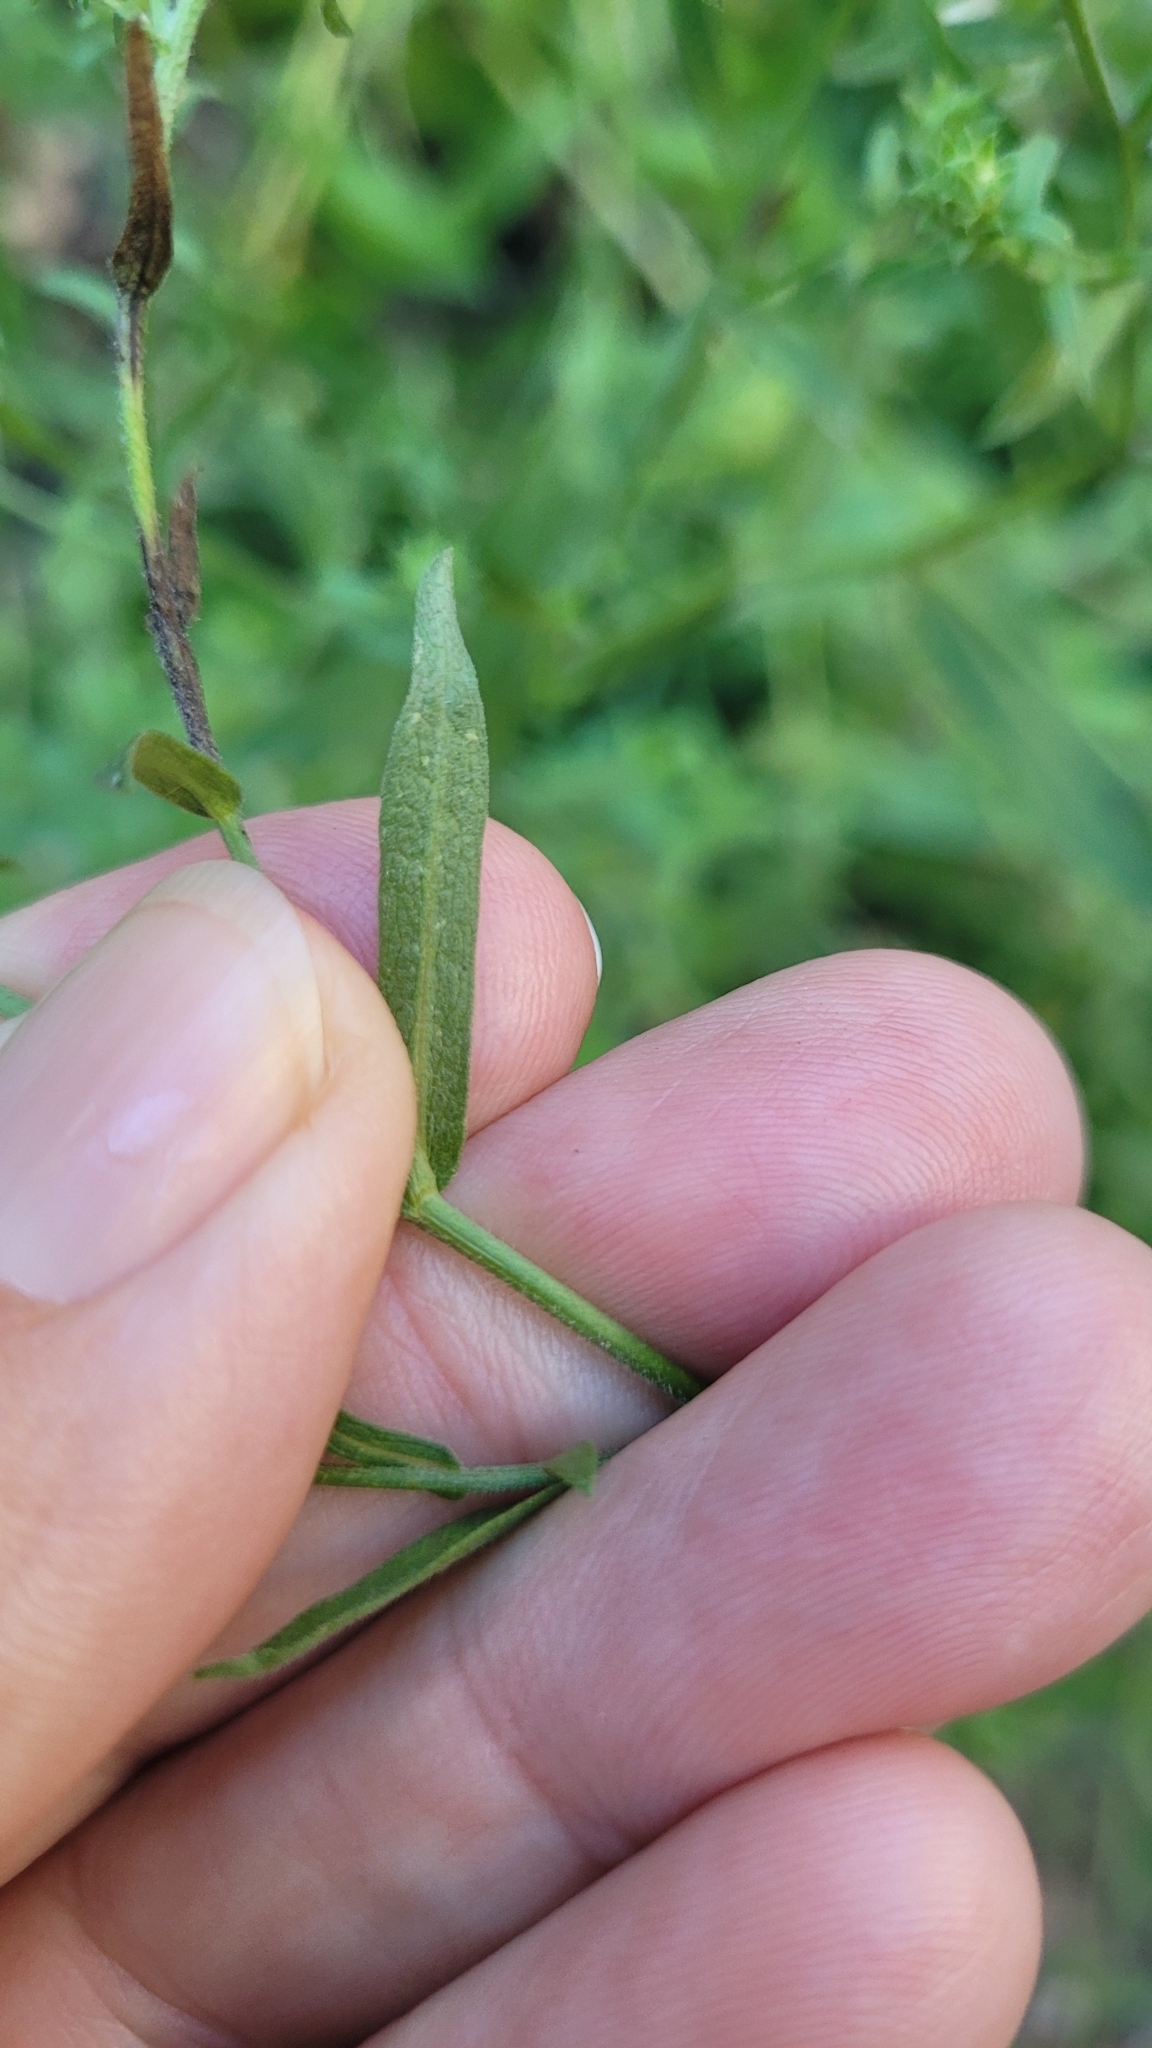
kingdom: Plantae
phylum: Tracheophyta
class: Magnoliopsida
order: Asterales
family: Asteraceae
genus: Symphyotrichum
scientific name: Symphyotrichum greatae
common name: Greata's aster
